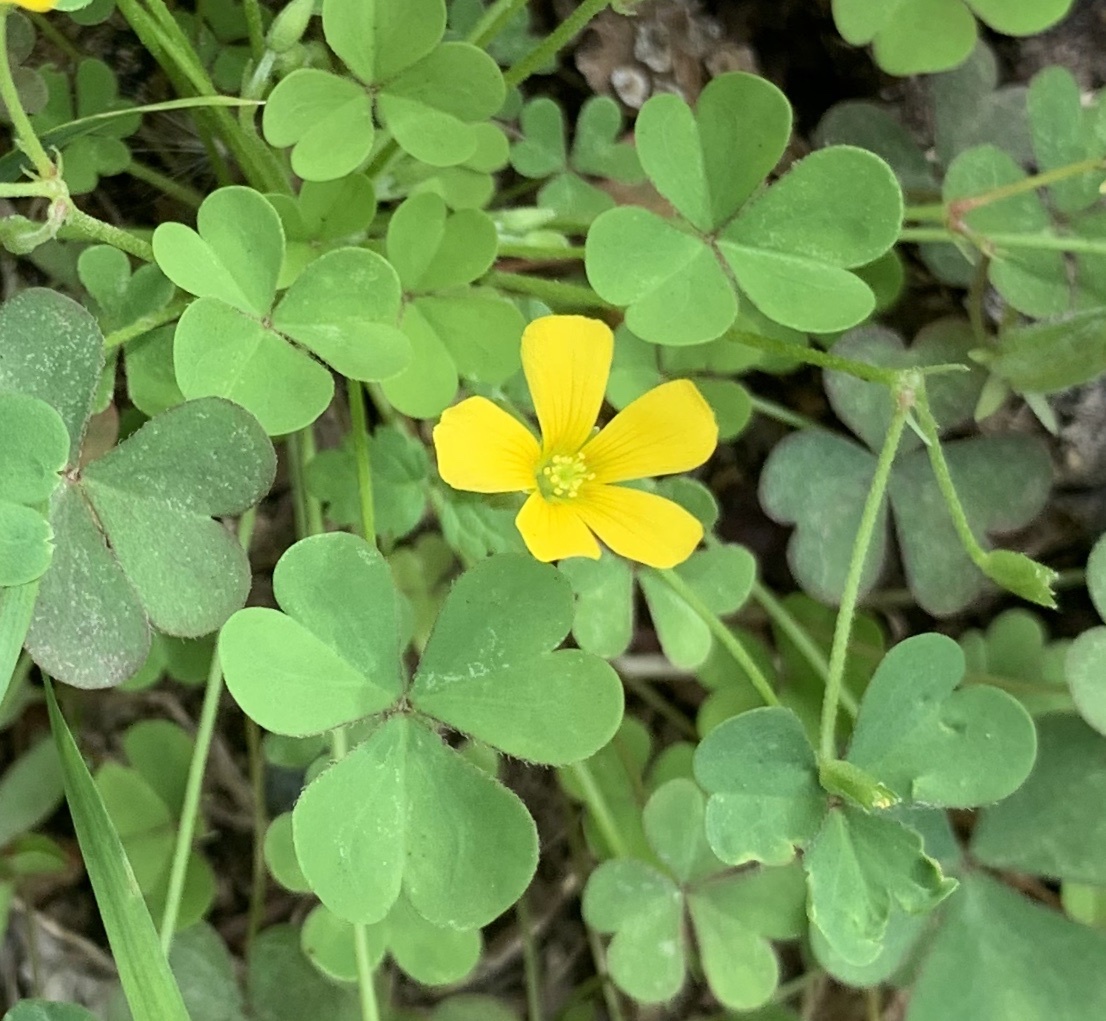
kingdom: Plantae
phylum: Tracheophyta
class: Magnoliopsida
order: Oxalidales
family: Oxalidaceae
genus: Oxalis
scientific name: Oxalis dillenii
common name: Sussex yellow-sorrel
